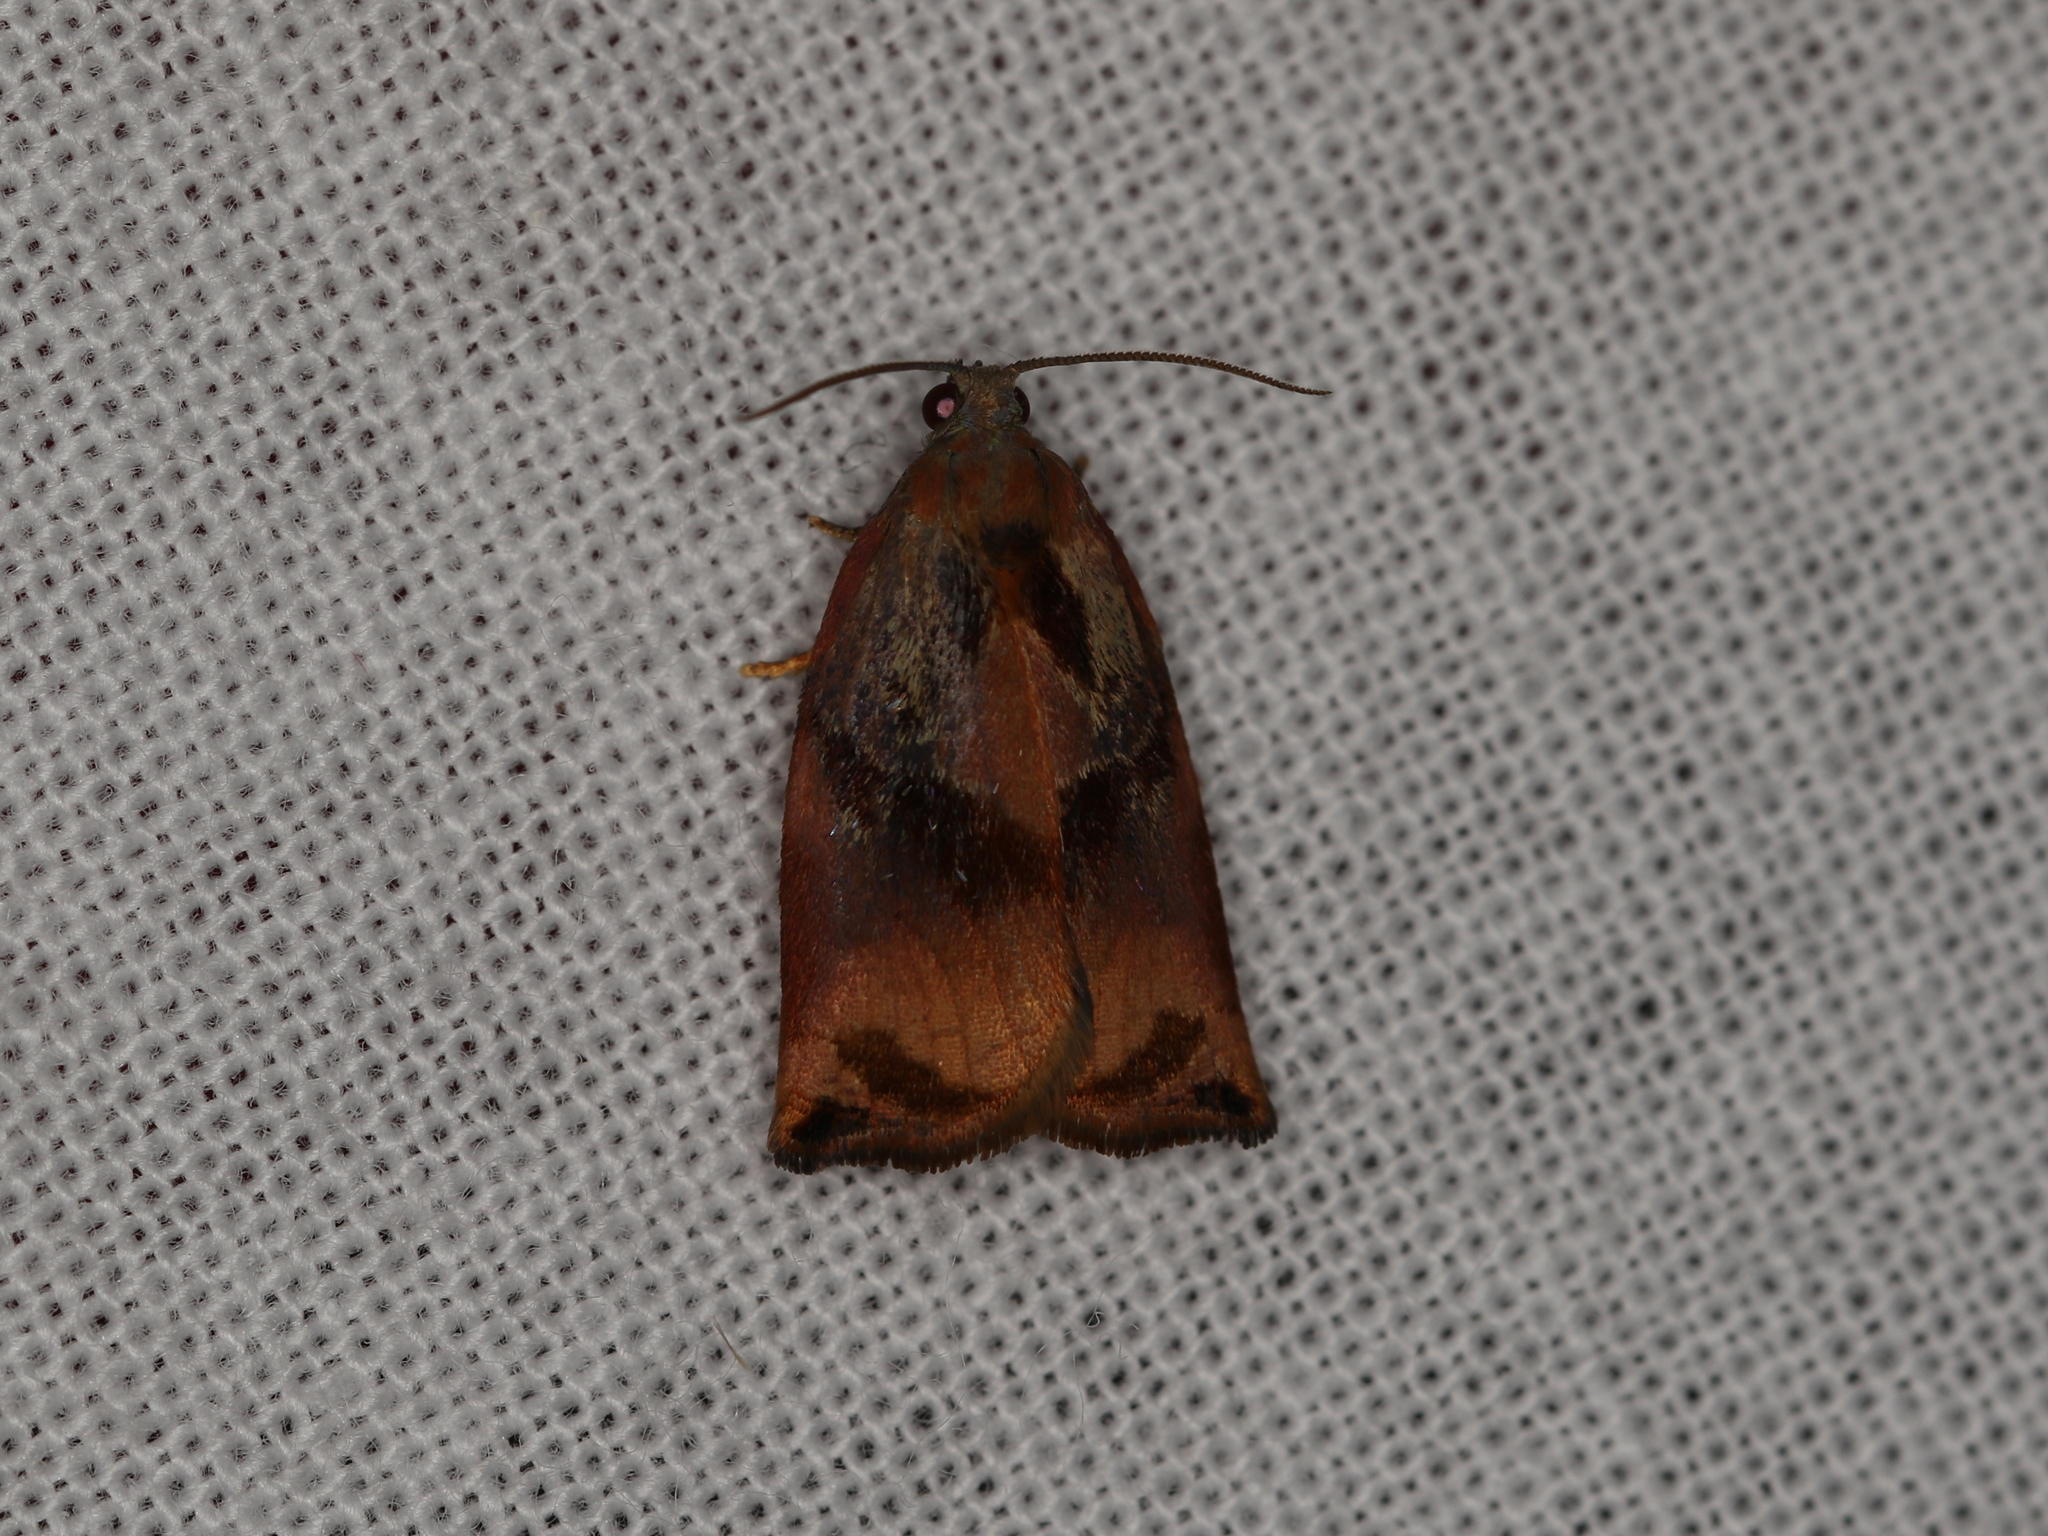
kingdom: Animalia
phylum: Arthropoda
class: Insecta
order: Lepidoptera
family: Tortricidae
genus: Archips
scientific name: Archips podana
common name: Large fruit-tree tortrix
